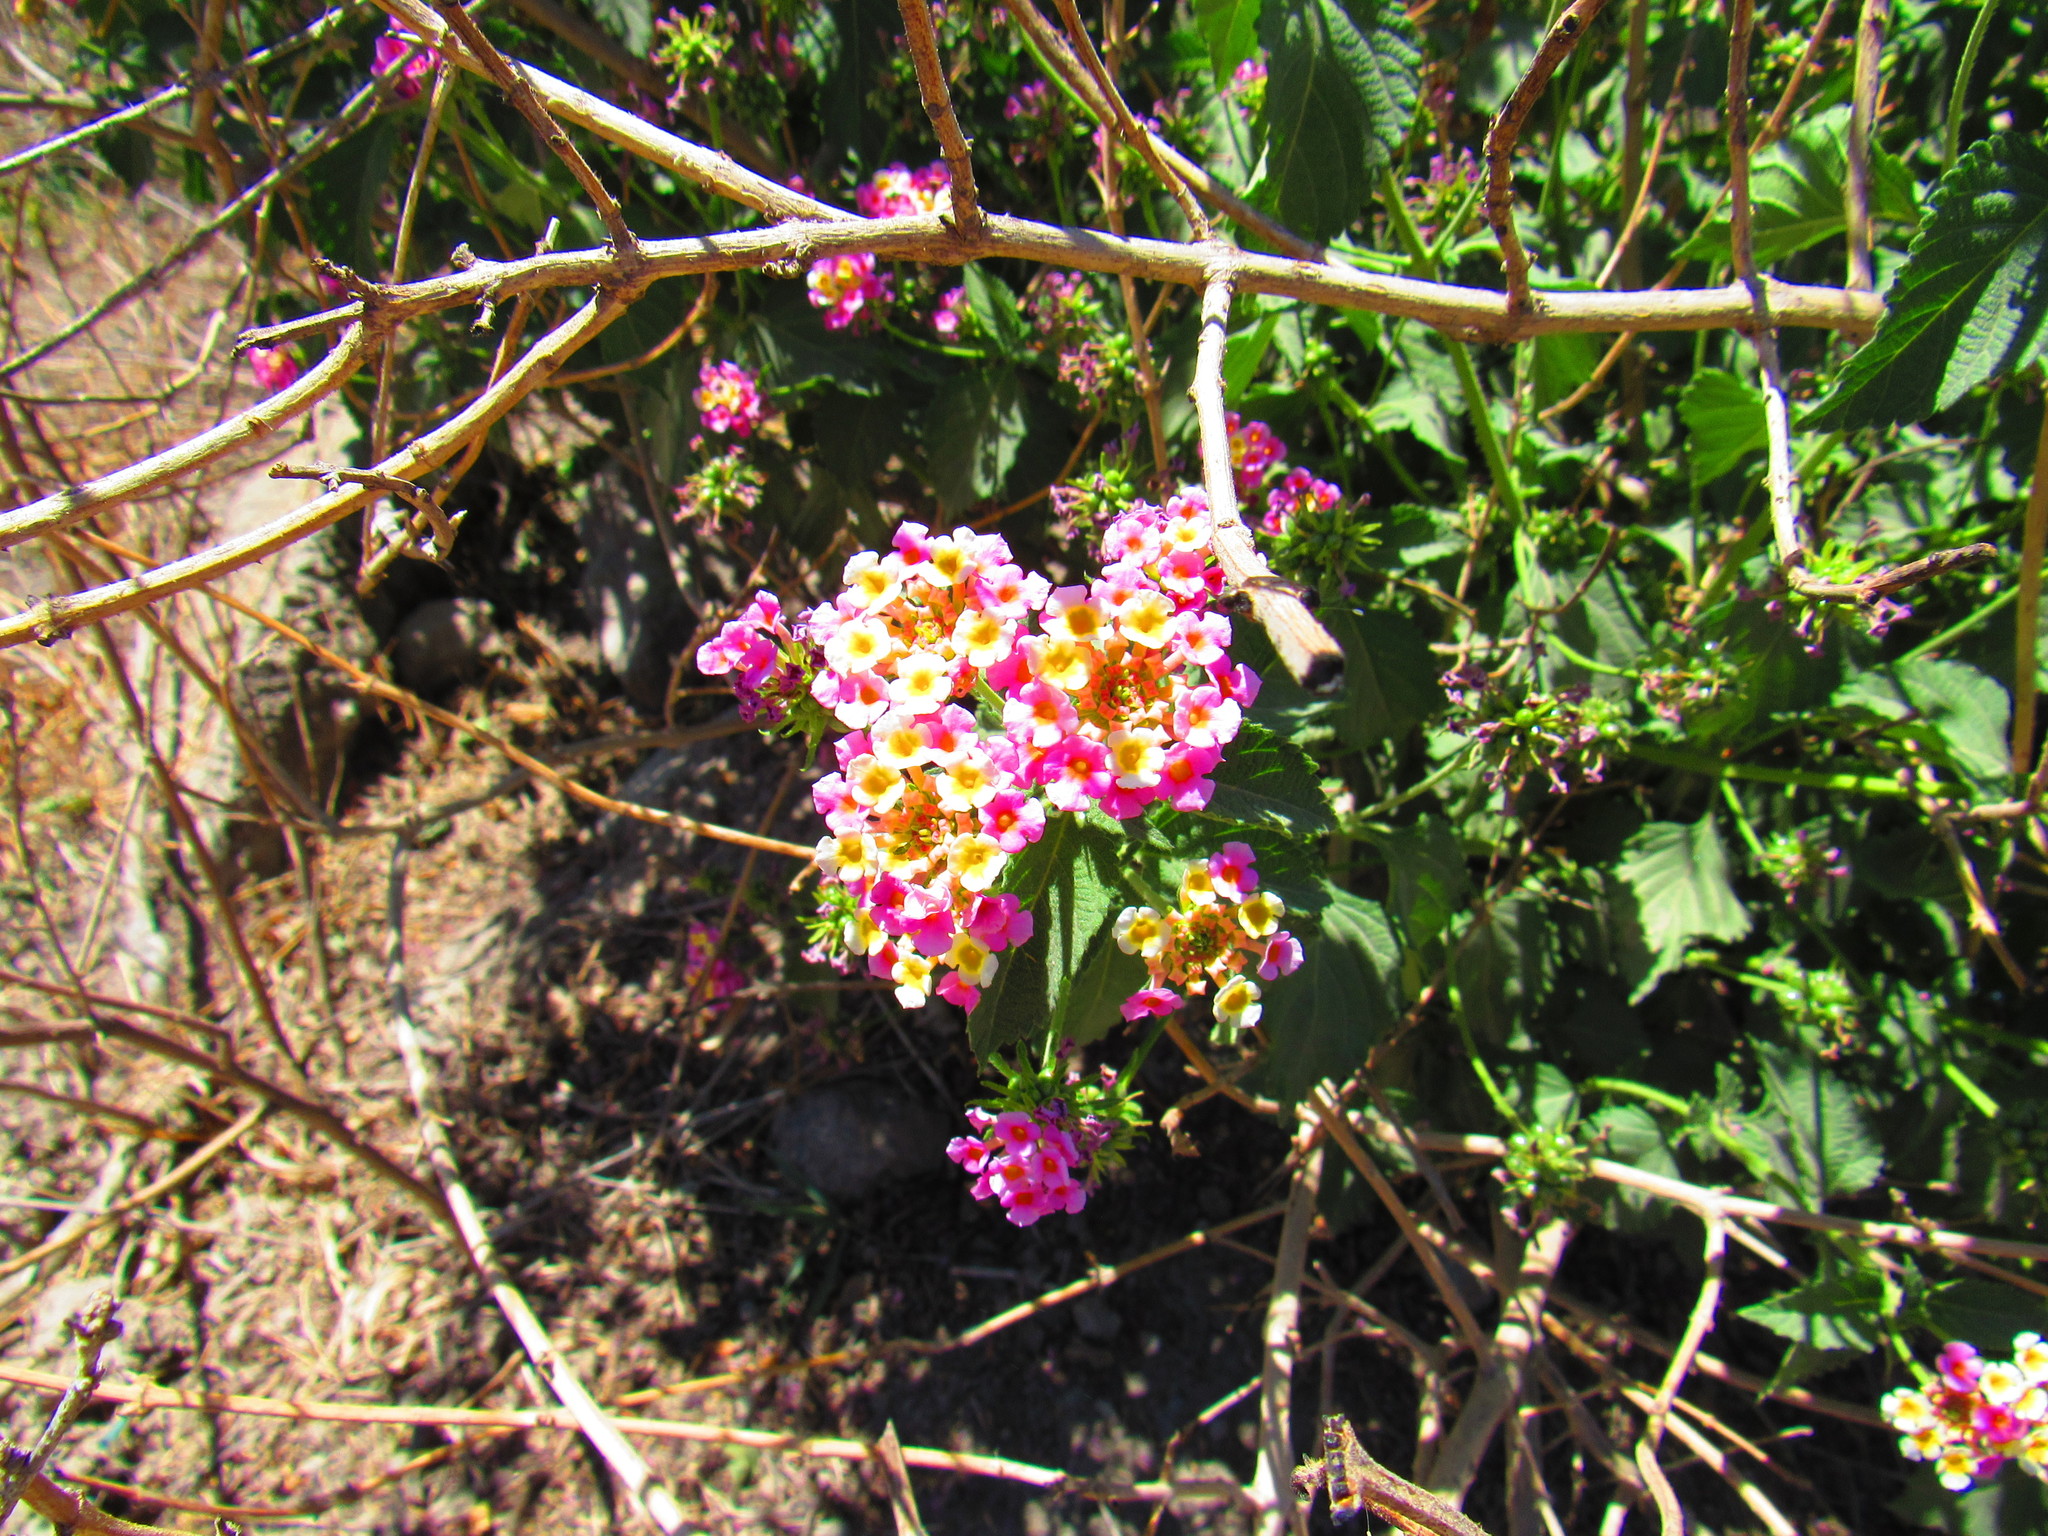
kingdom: Plantae
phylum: Tracheophyta
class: Magnoliopsida
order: Lamiales
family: Verbenaceae
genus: Lantana
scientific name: Lantana camara
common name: Lantana
